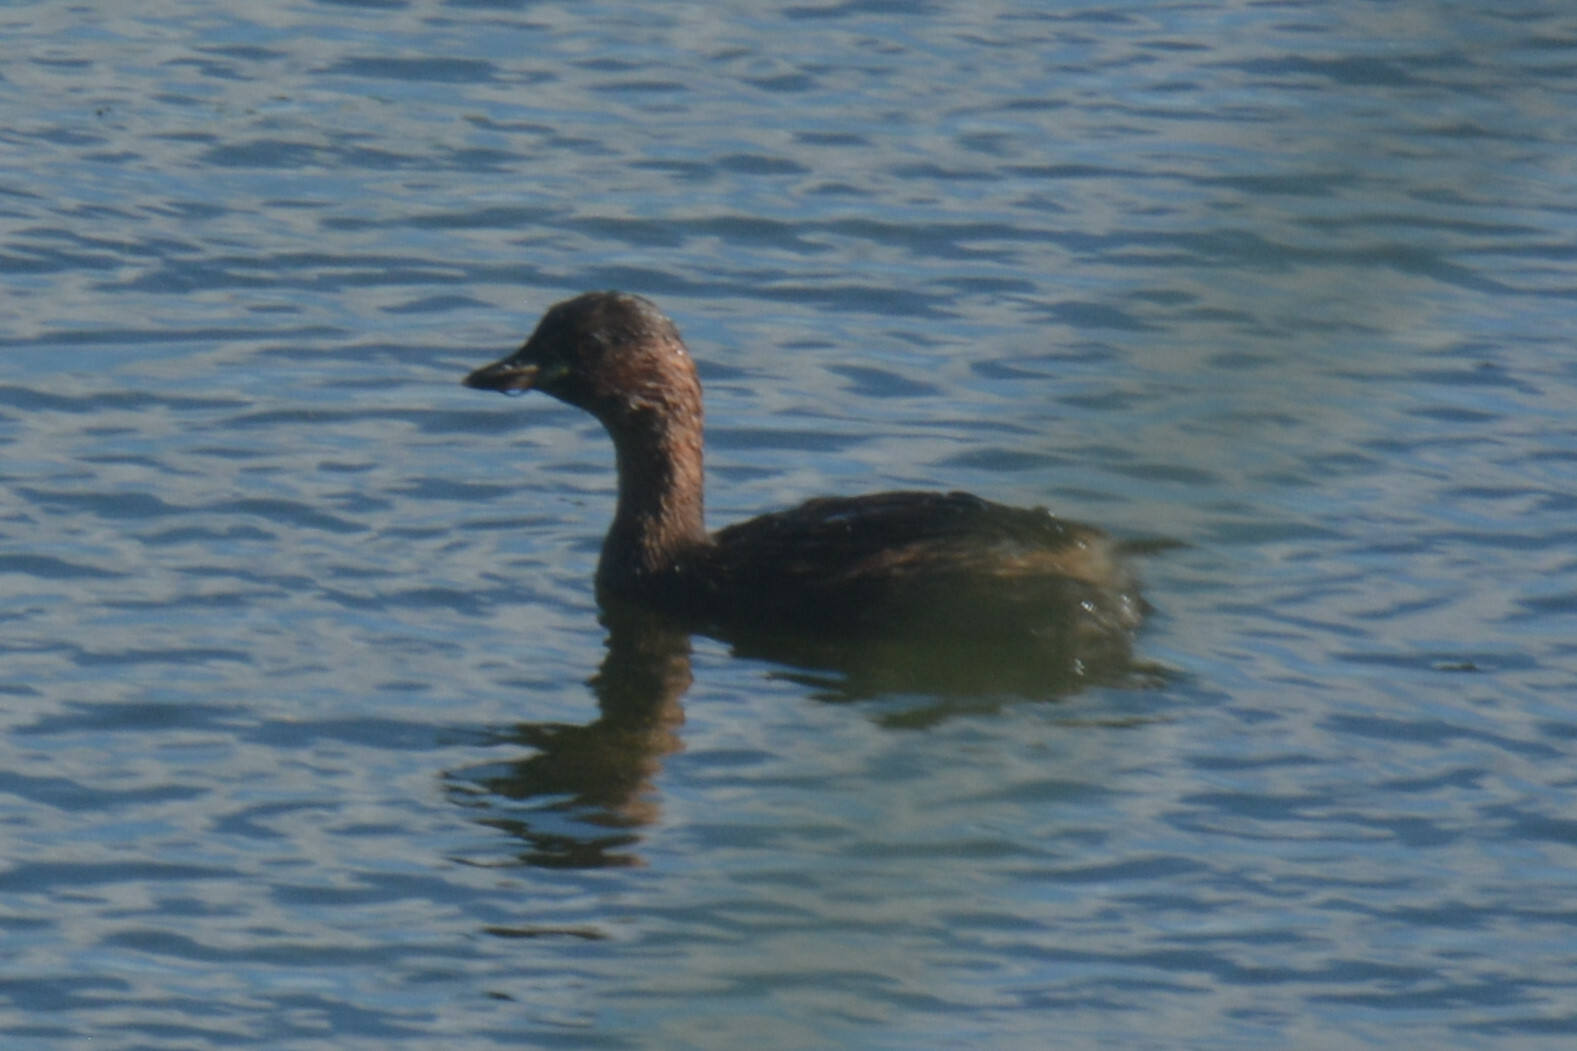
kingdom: Animalia
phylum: Chordata
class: Aves
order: Podicipediformes
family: Podicipedidae
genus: Tachybaptus
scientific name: Tachybaptus ruficollis
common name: Little grebe
